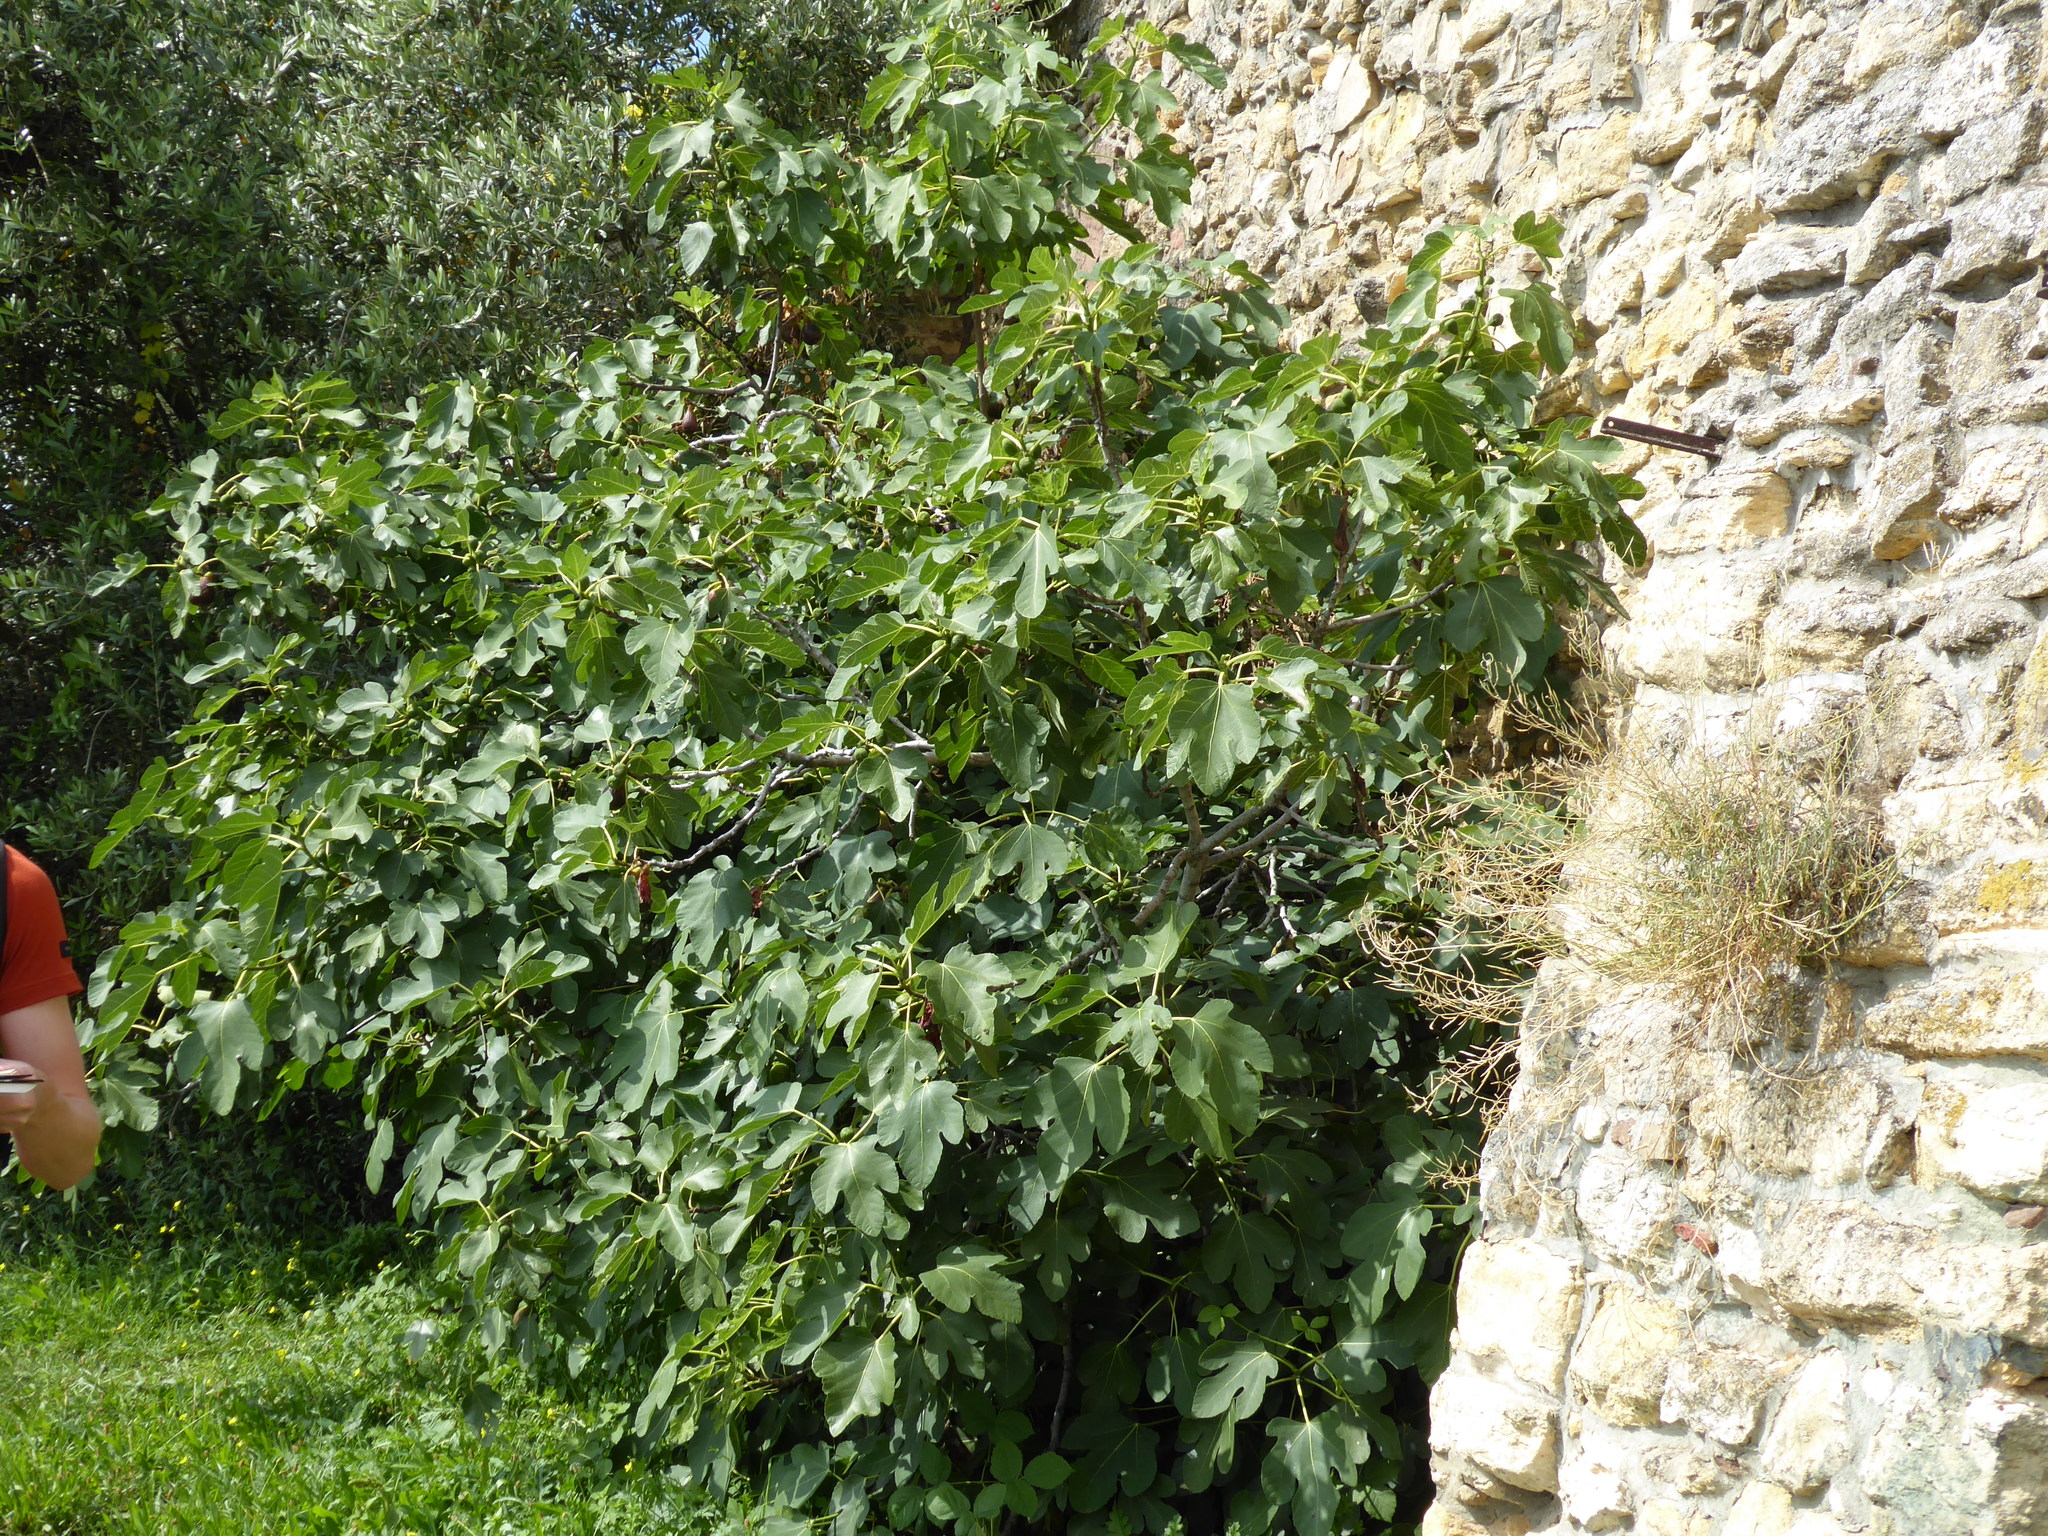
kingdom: Plantae
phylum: Tracheophyta
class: Magnoliopsida
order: Rosales
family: Moraceae
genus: Ficus
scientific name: Ficus carica
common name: Fig
